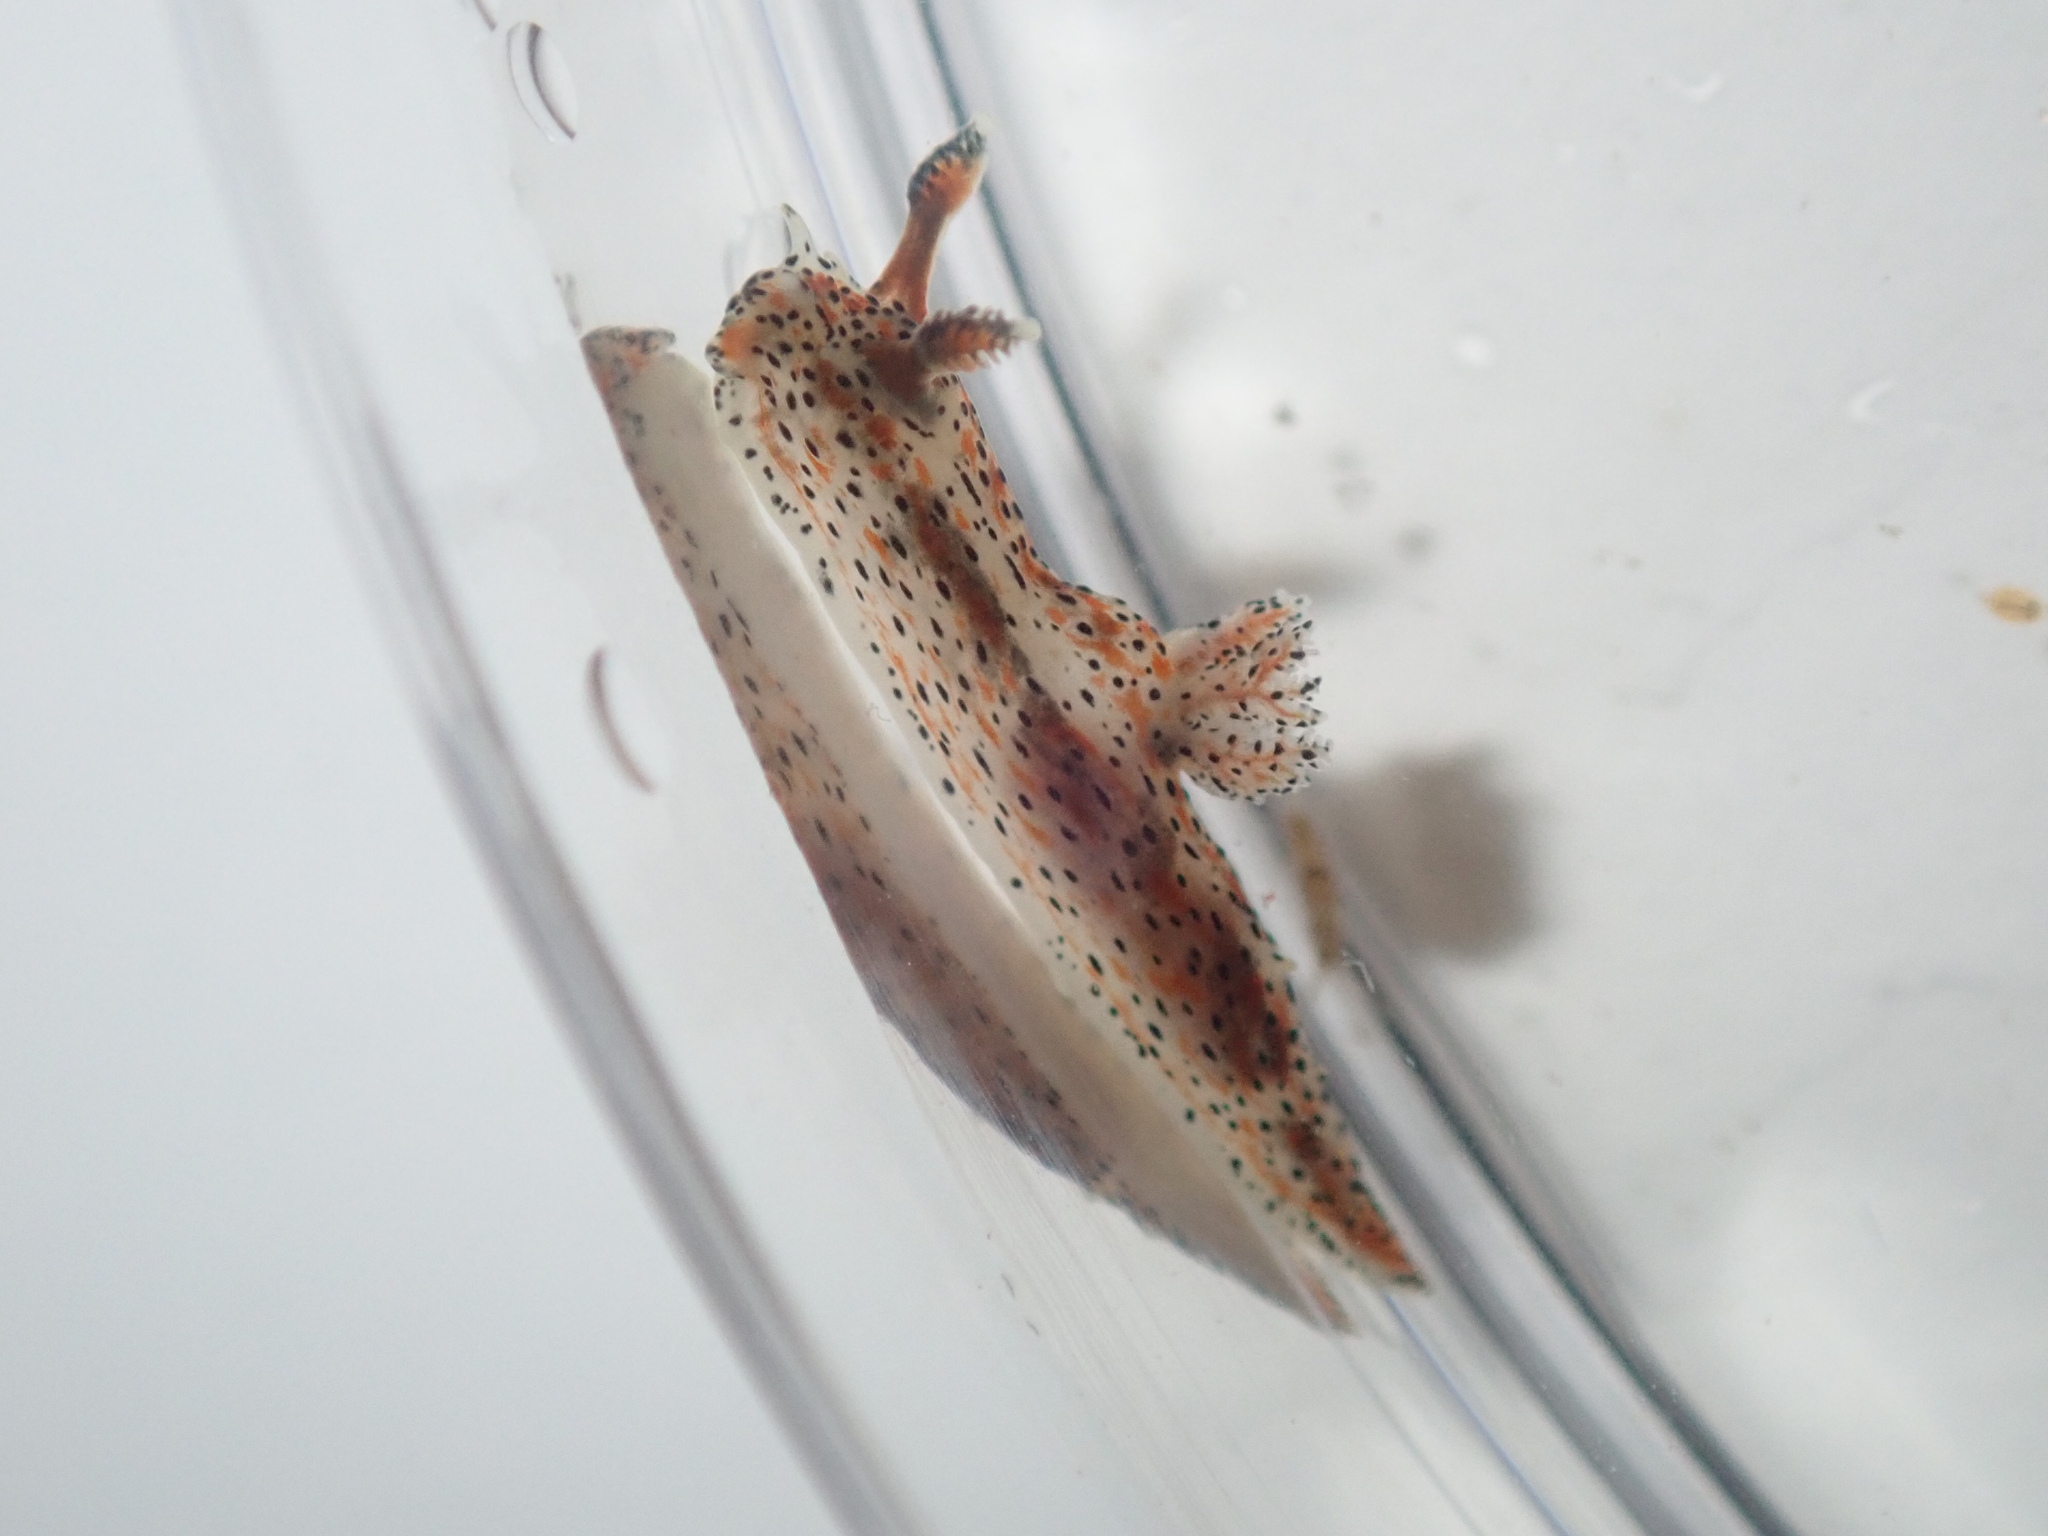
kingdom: Animalia
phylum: Mollusca
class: Gastropoda
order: Nudibranchia
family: Polyceridae
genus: Polycera
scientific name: Polycera fujitai
